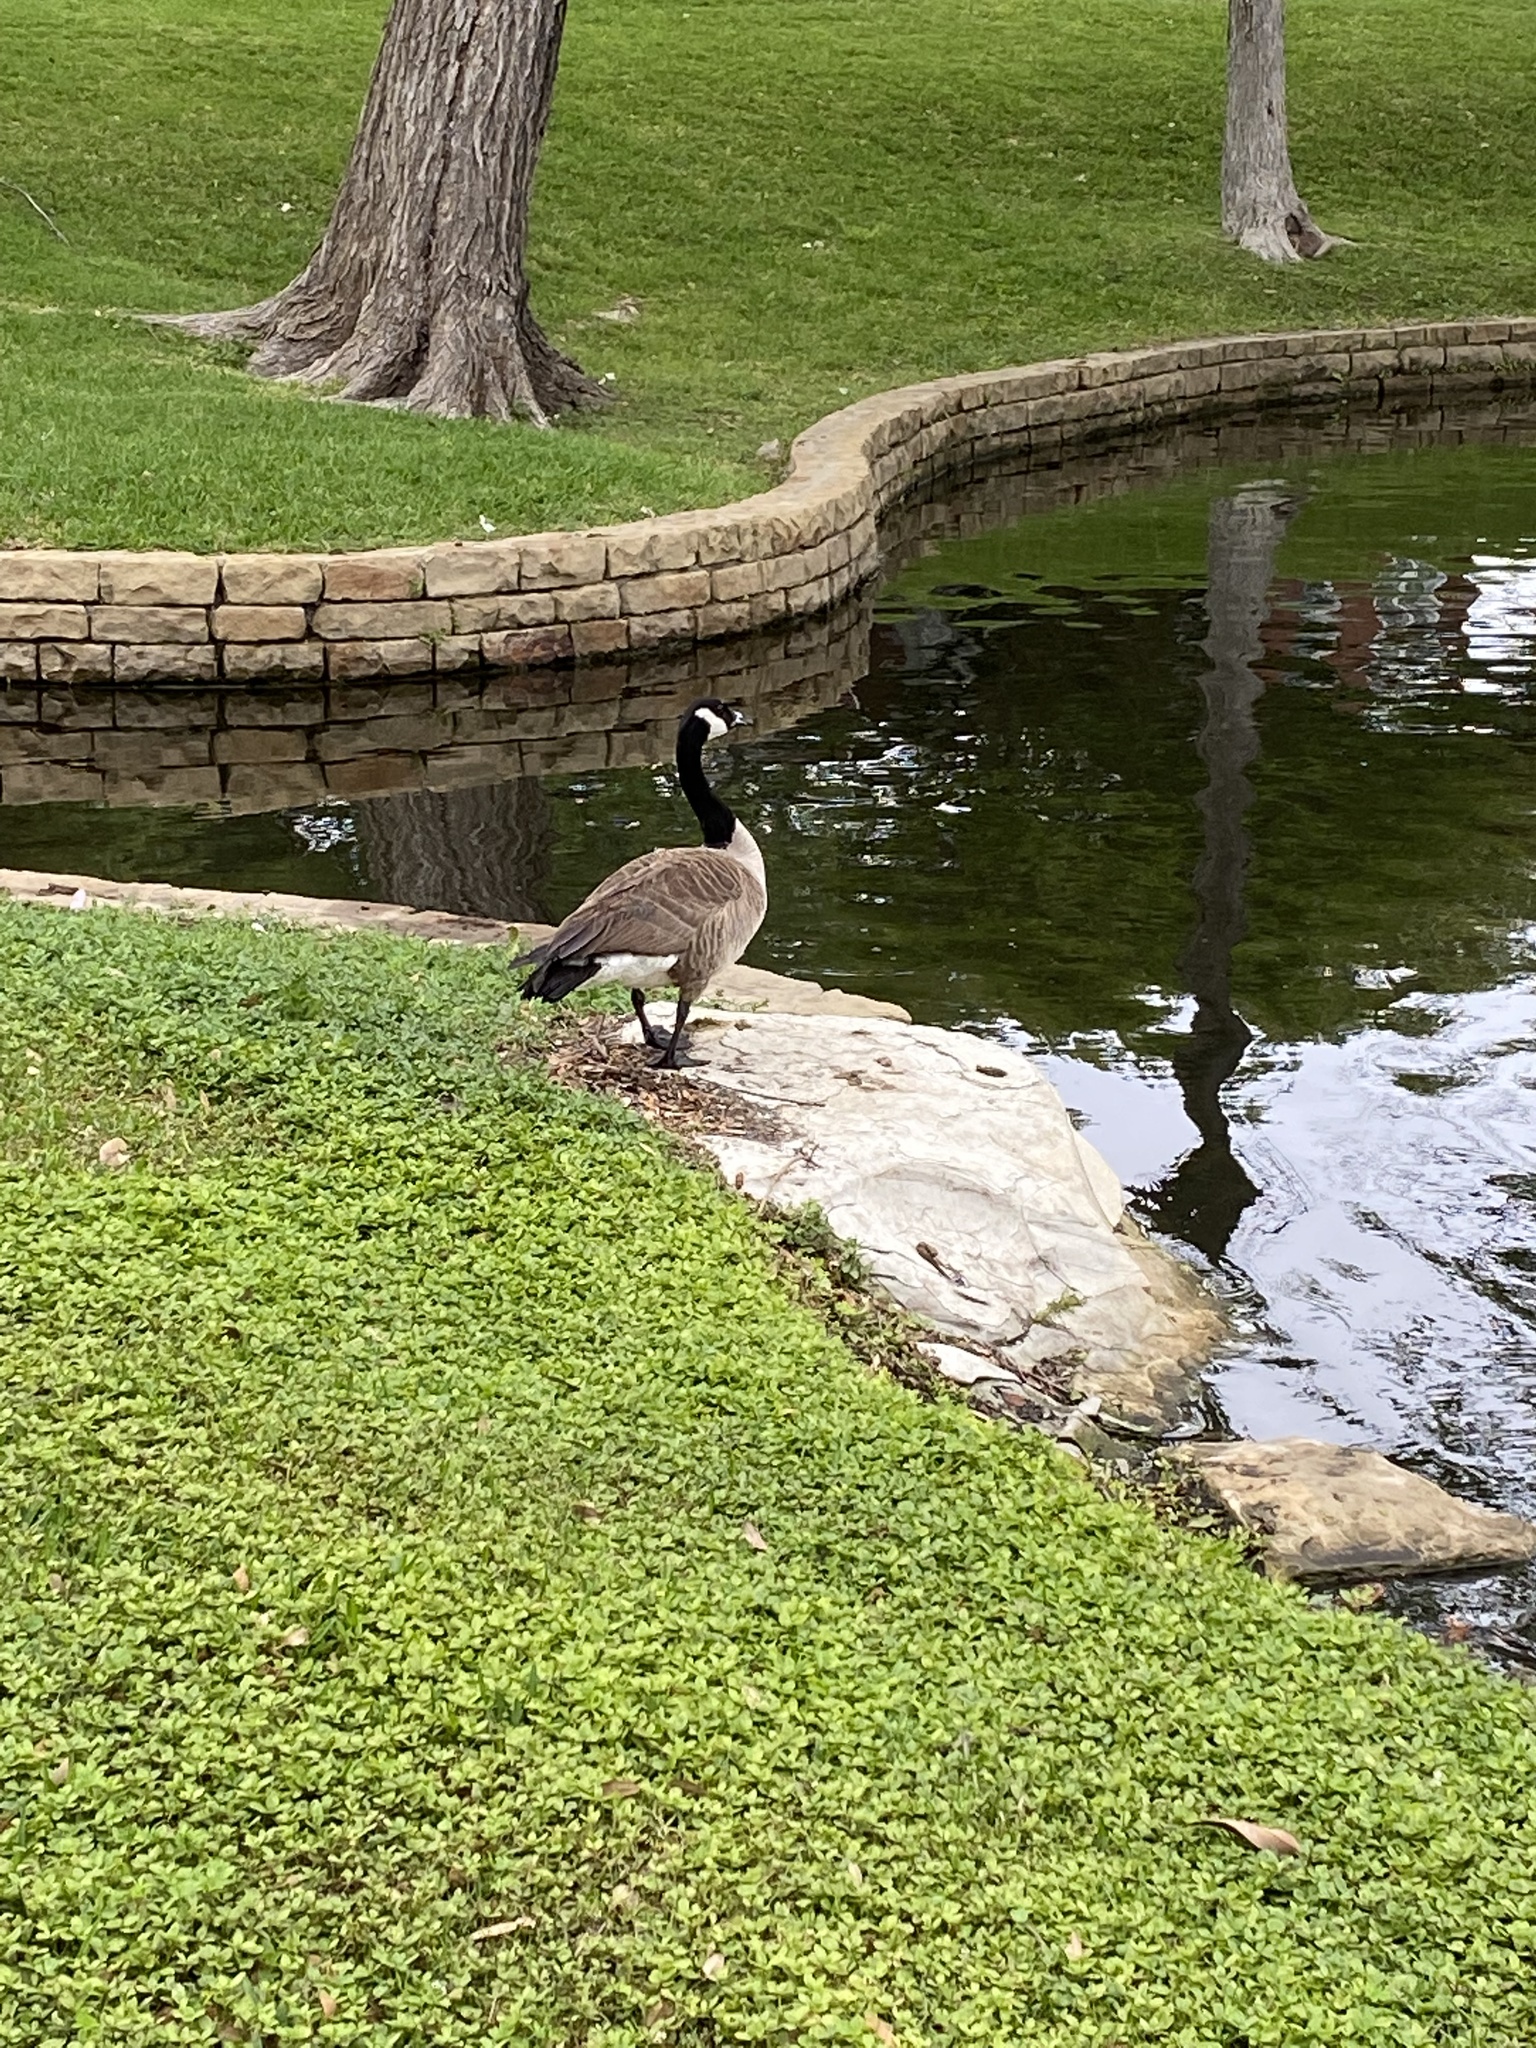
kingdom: Animalia
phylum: Chordata
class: Aves
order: Anseriformes
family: Anatidae
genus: Branta
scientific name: Branta canadensis
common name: Canada goose
